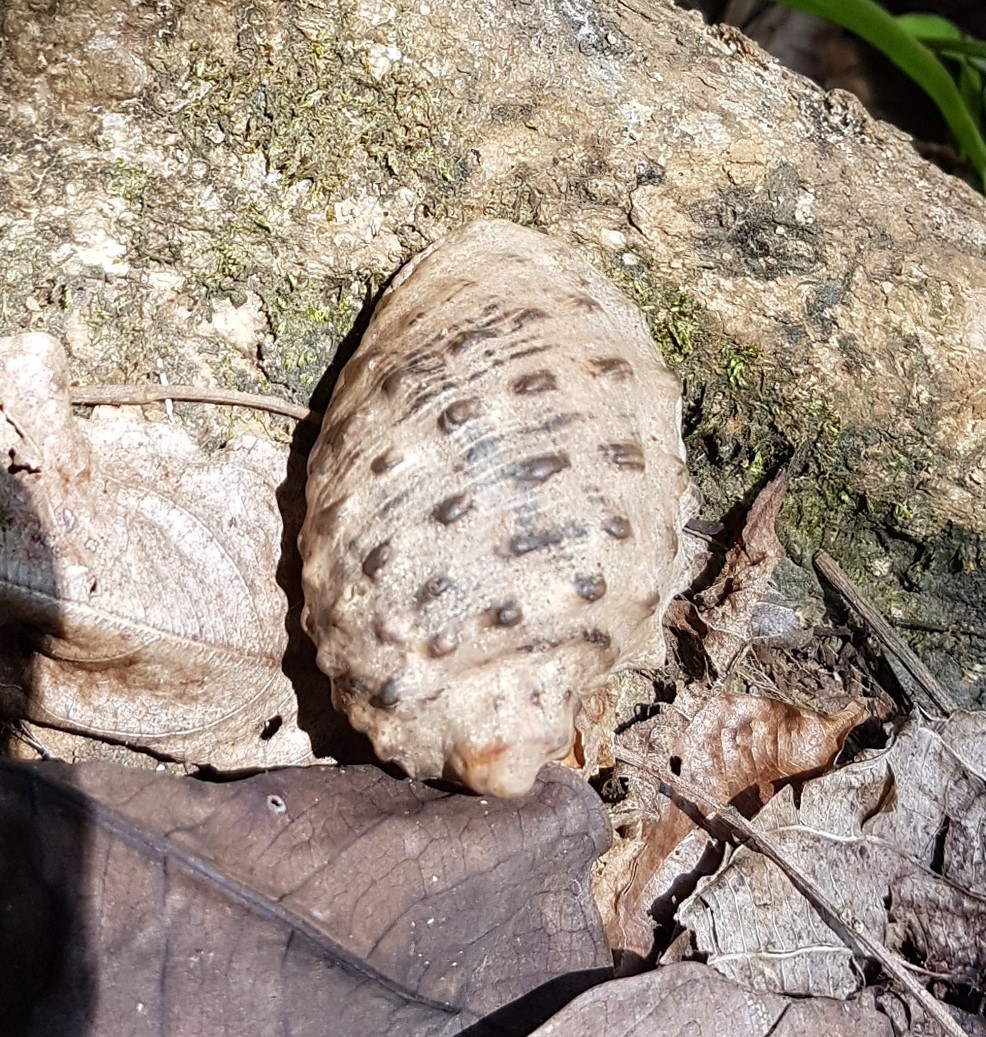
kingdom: Animalia
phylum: Mollusca
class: Gastropoda
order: Neogastropoda
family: Muricidae
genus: Plicopurpura
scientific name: Plicopurpura patula
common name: Wide-mouthed dye shell
